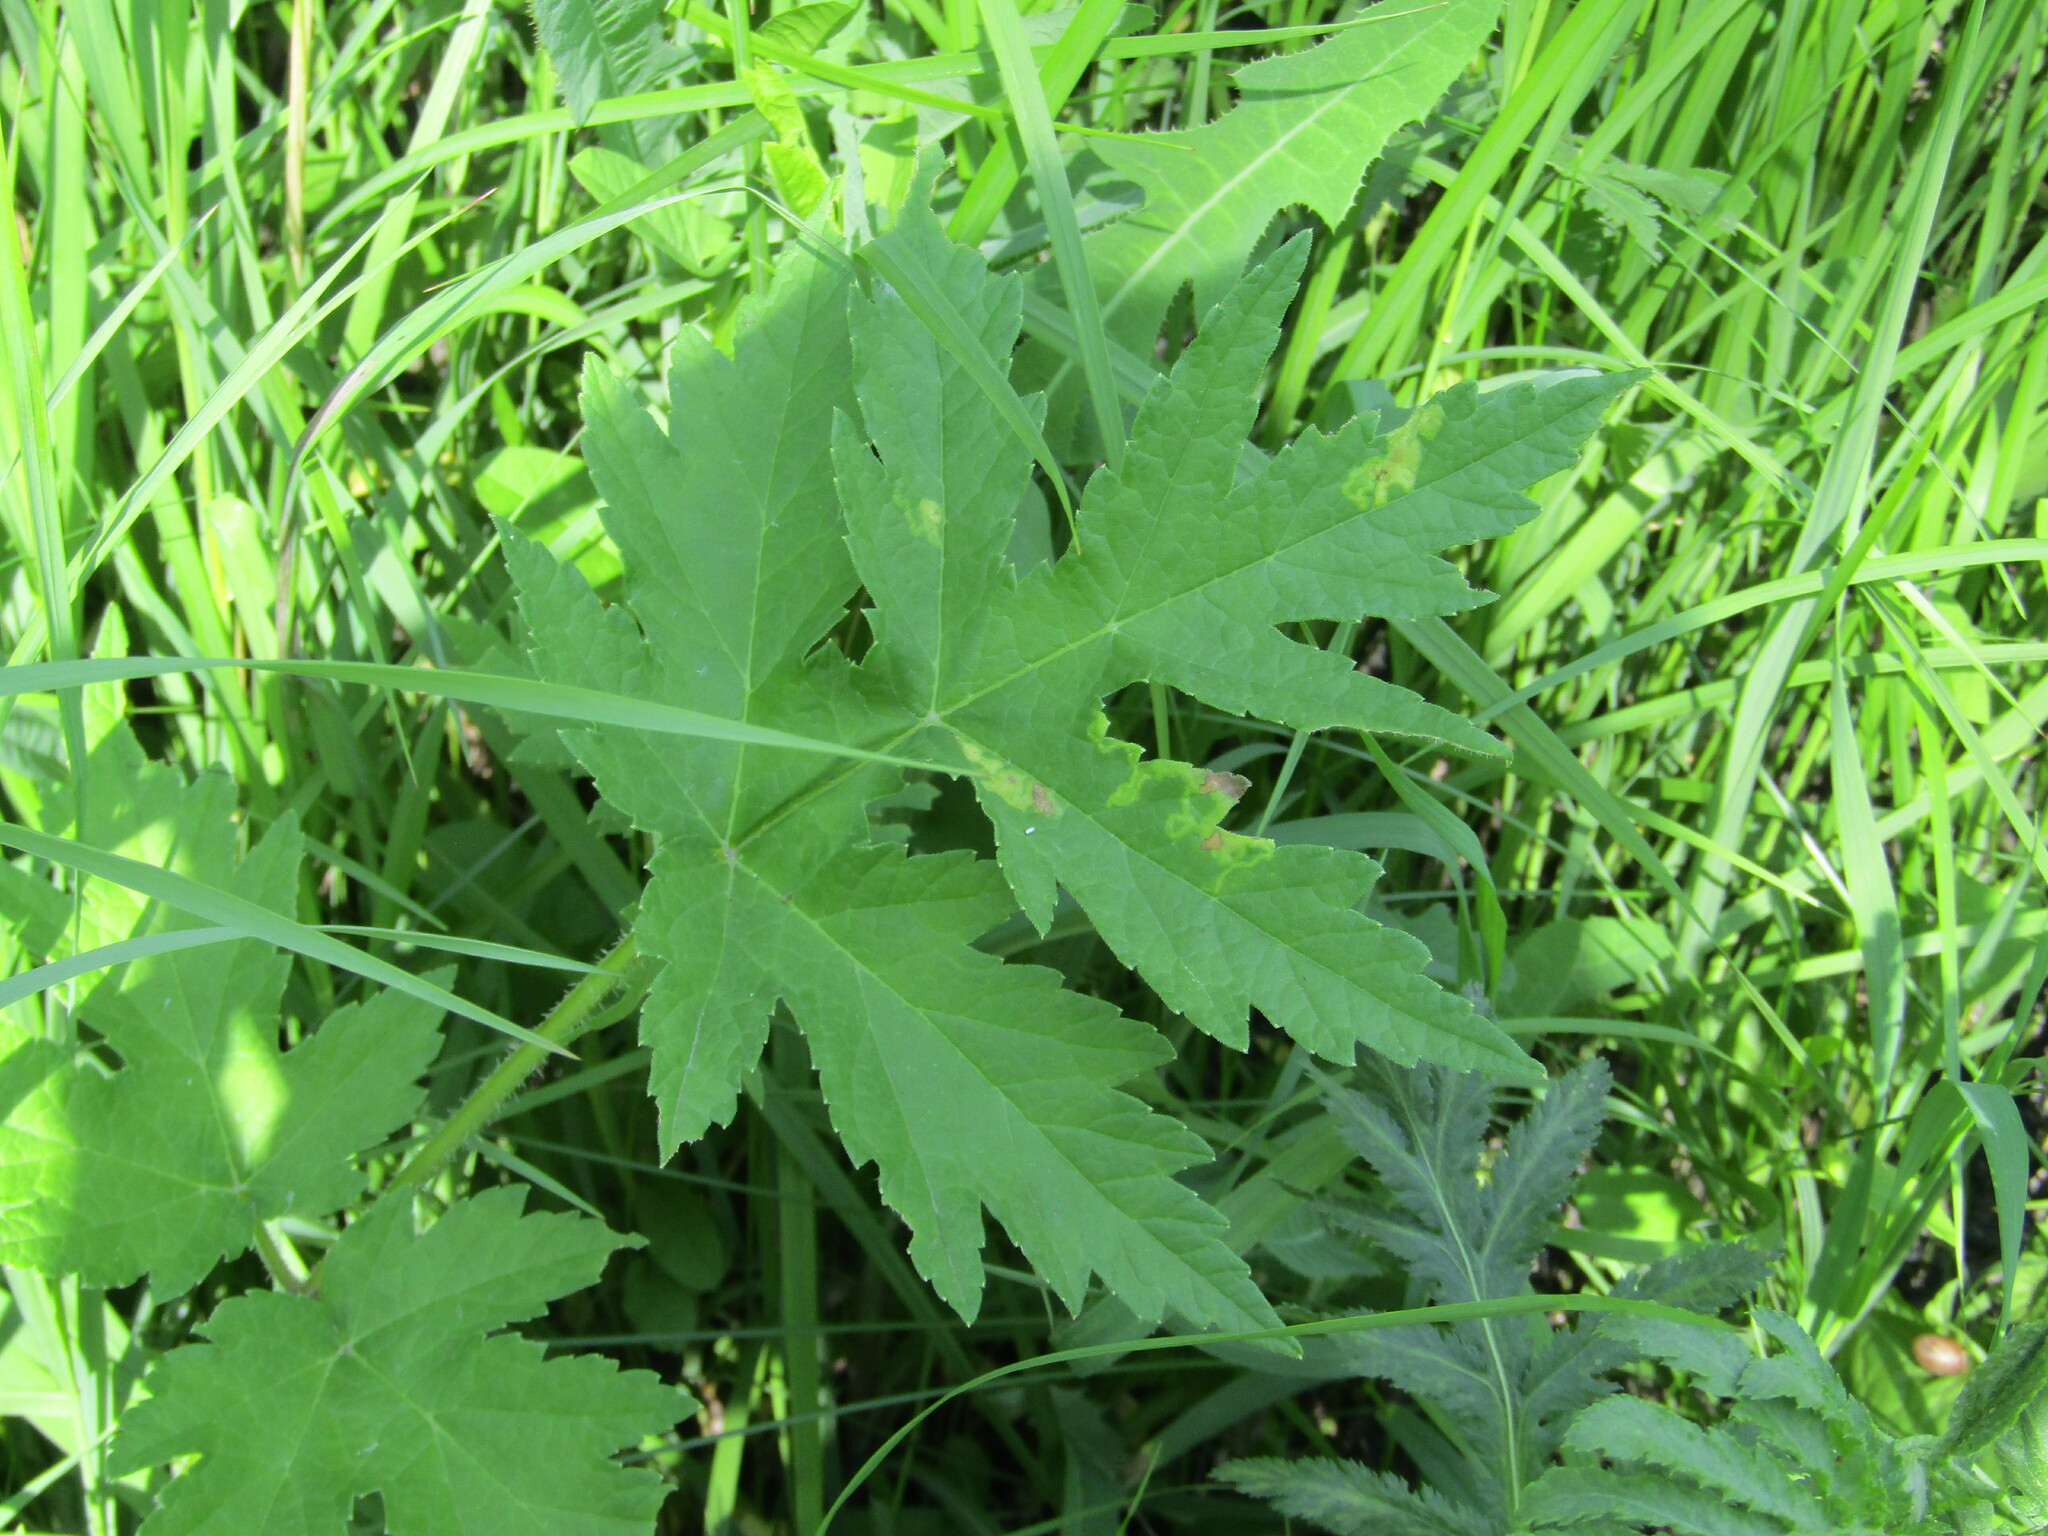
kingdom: Plantae
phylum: Tracheophyta
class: Magnoliopsida
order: Apiales
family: Apiaceae
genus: Heracleum
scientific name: Heracleum sphondylium
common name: Hogweed
